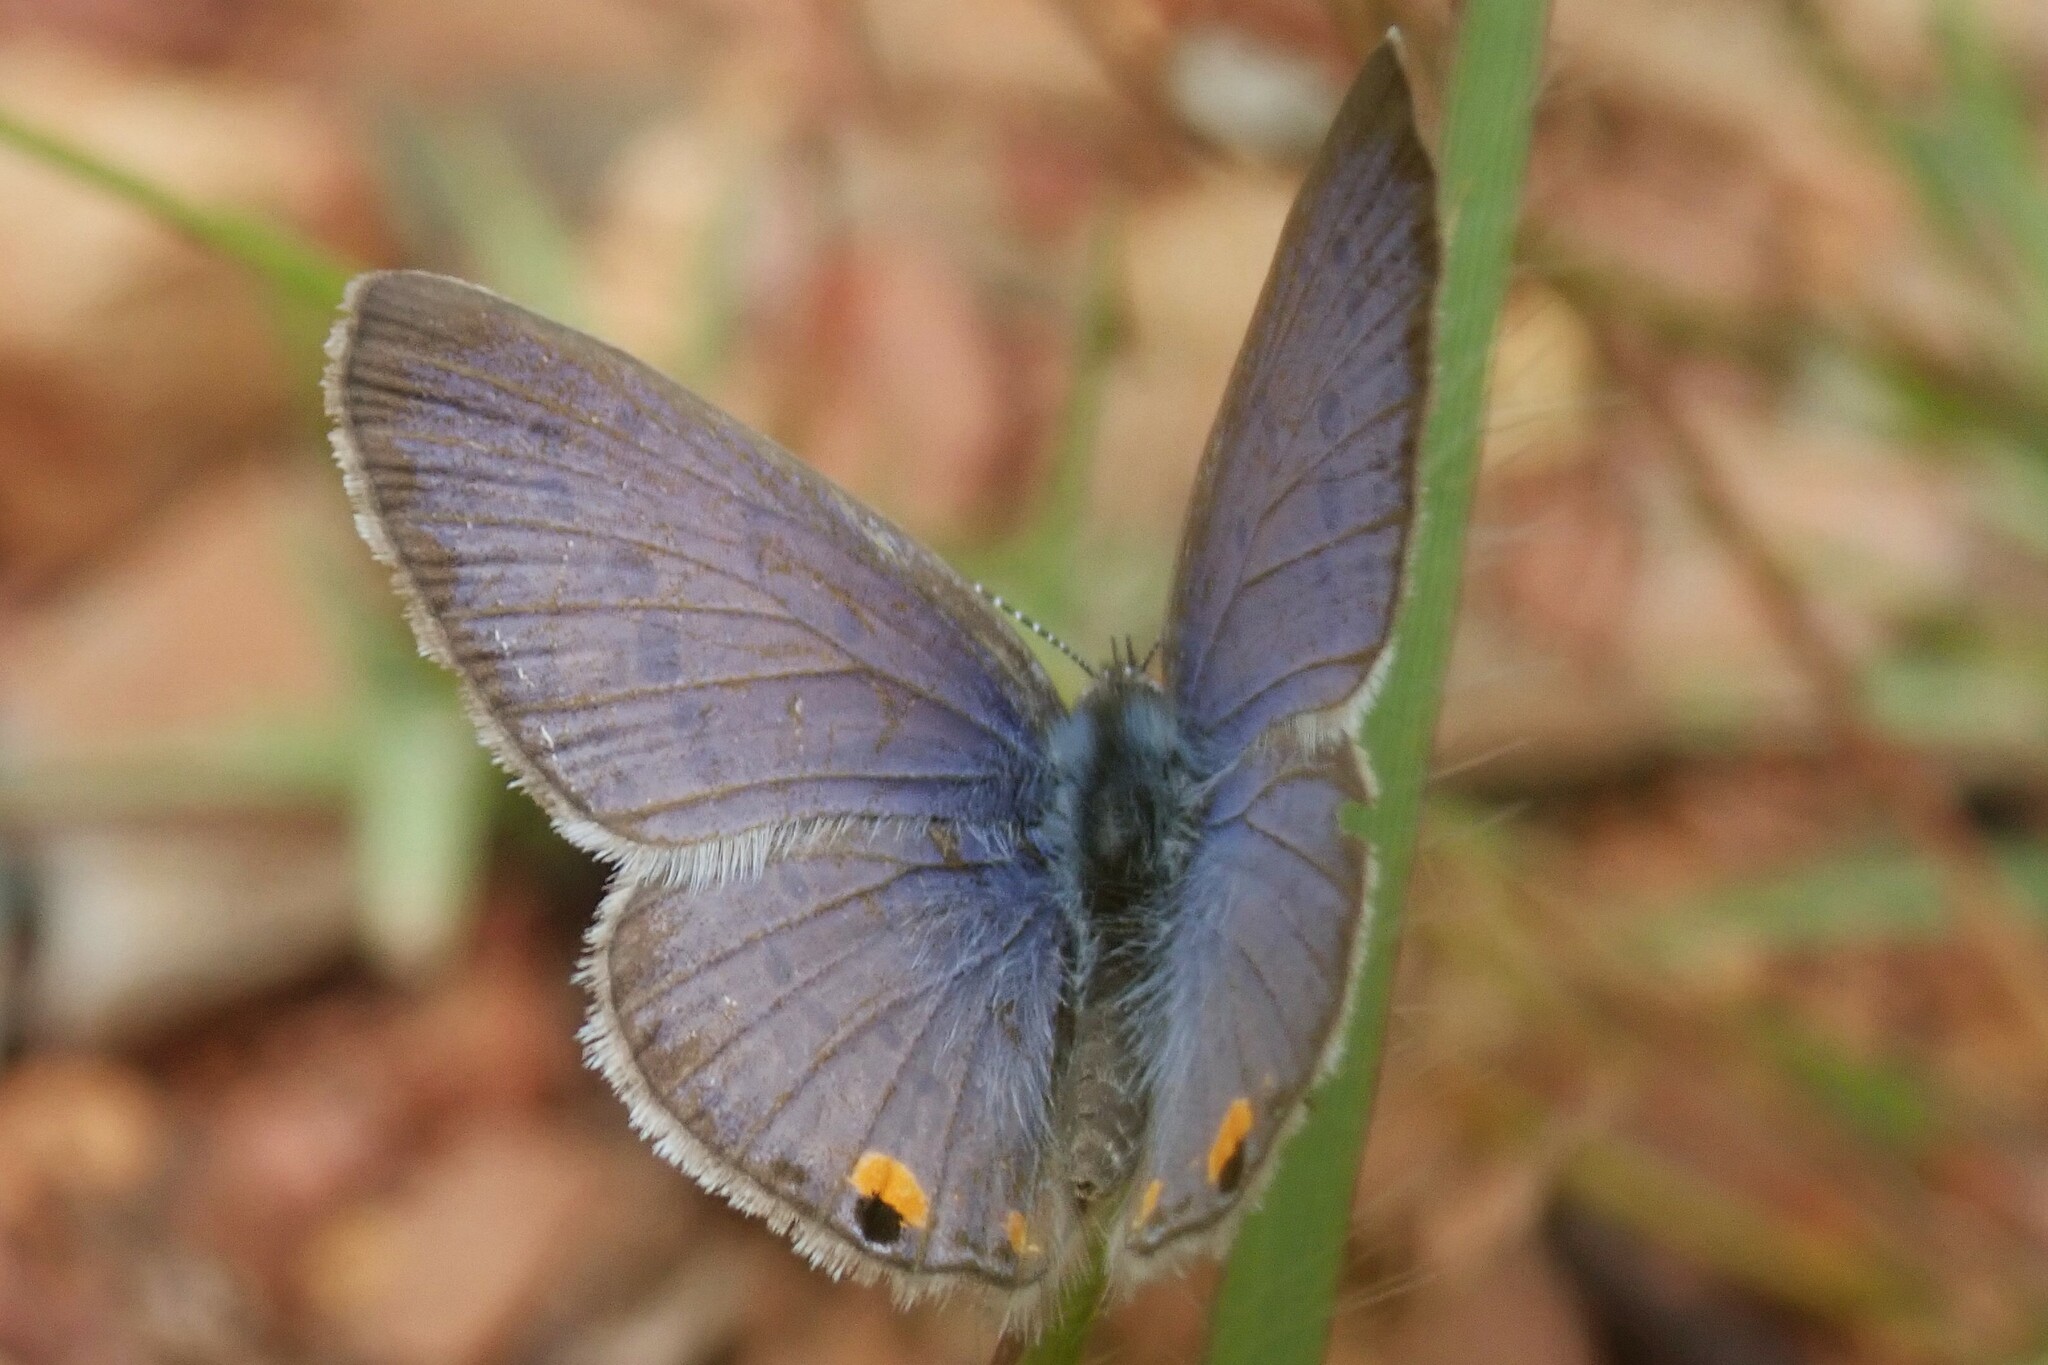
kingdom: Animalia
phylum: Arthropoda
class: Insecta
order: Lepidoptera
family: Lycaenidae
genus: Cupido
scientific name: Cupido cissus
